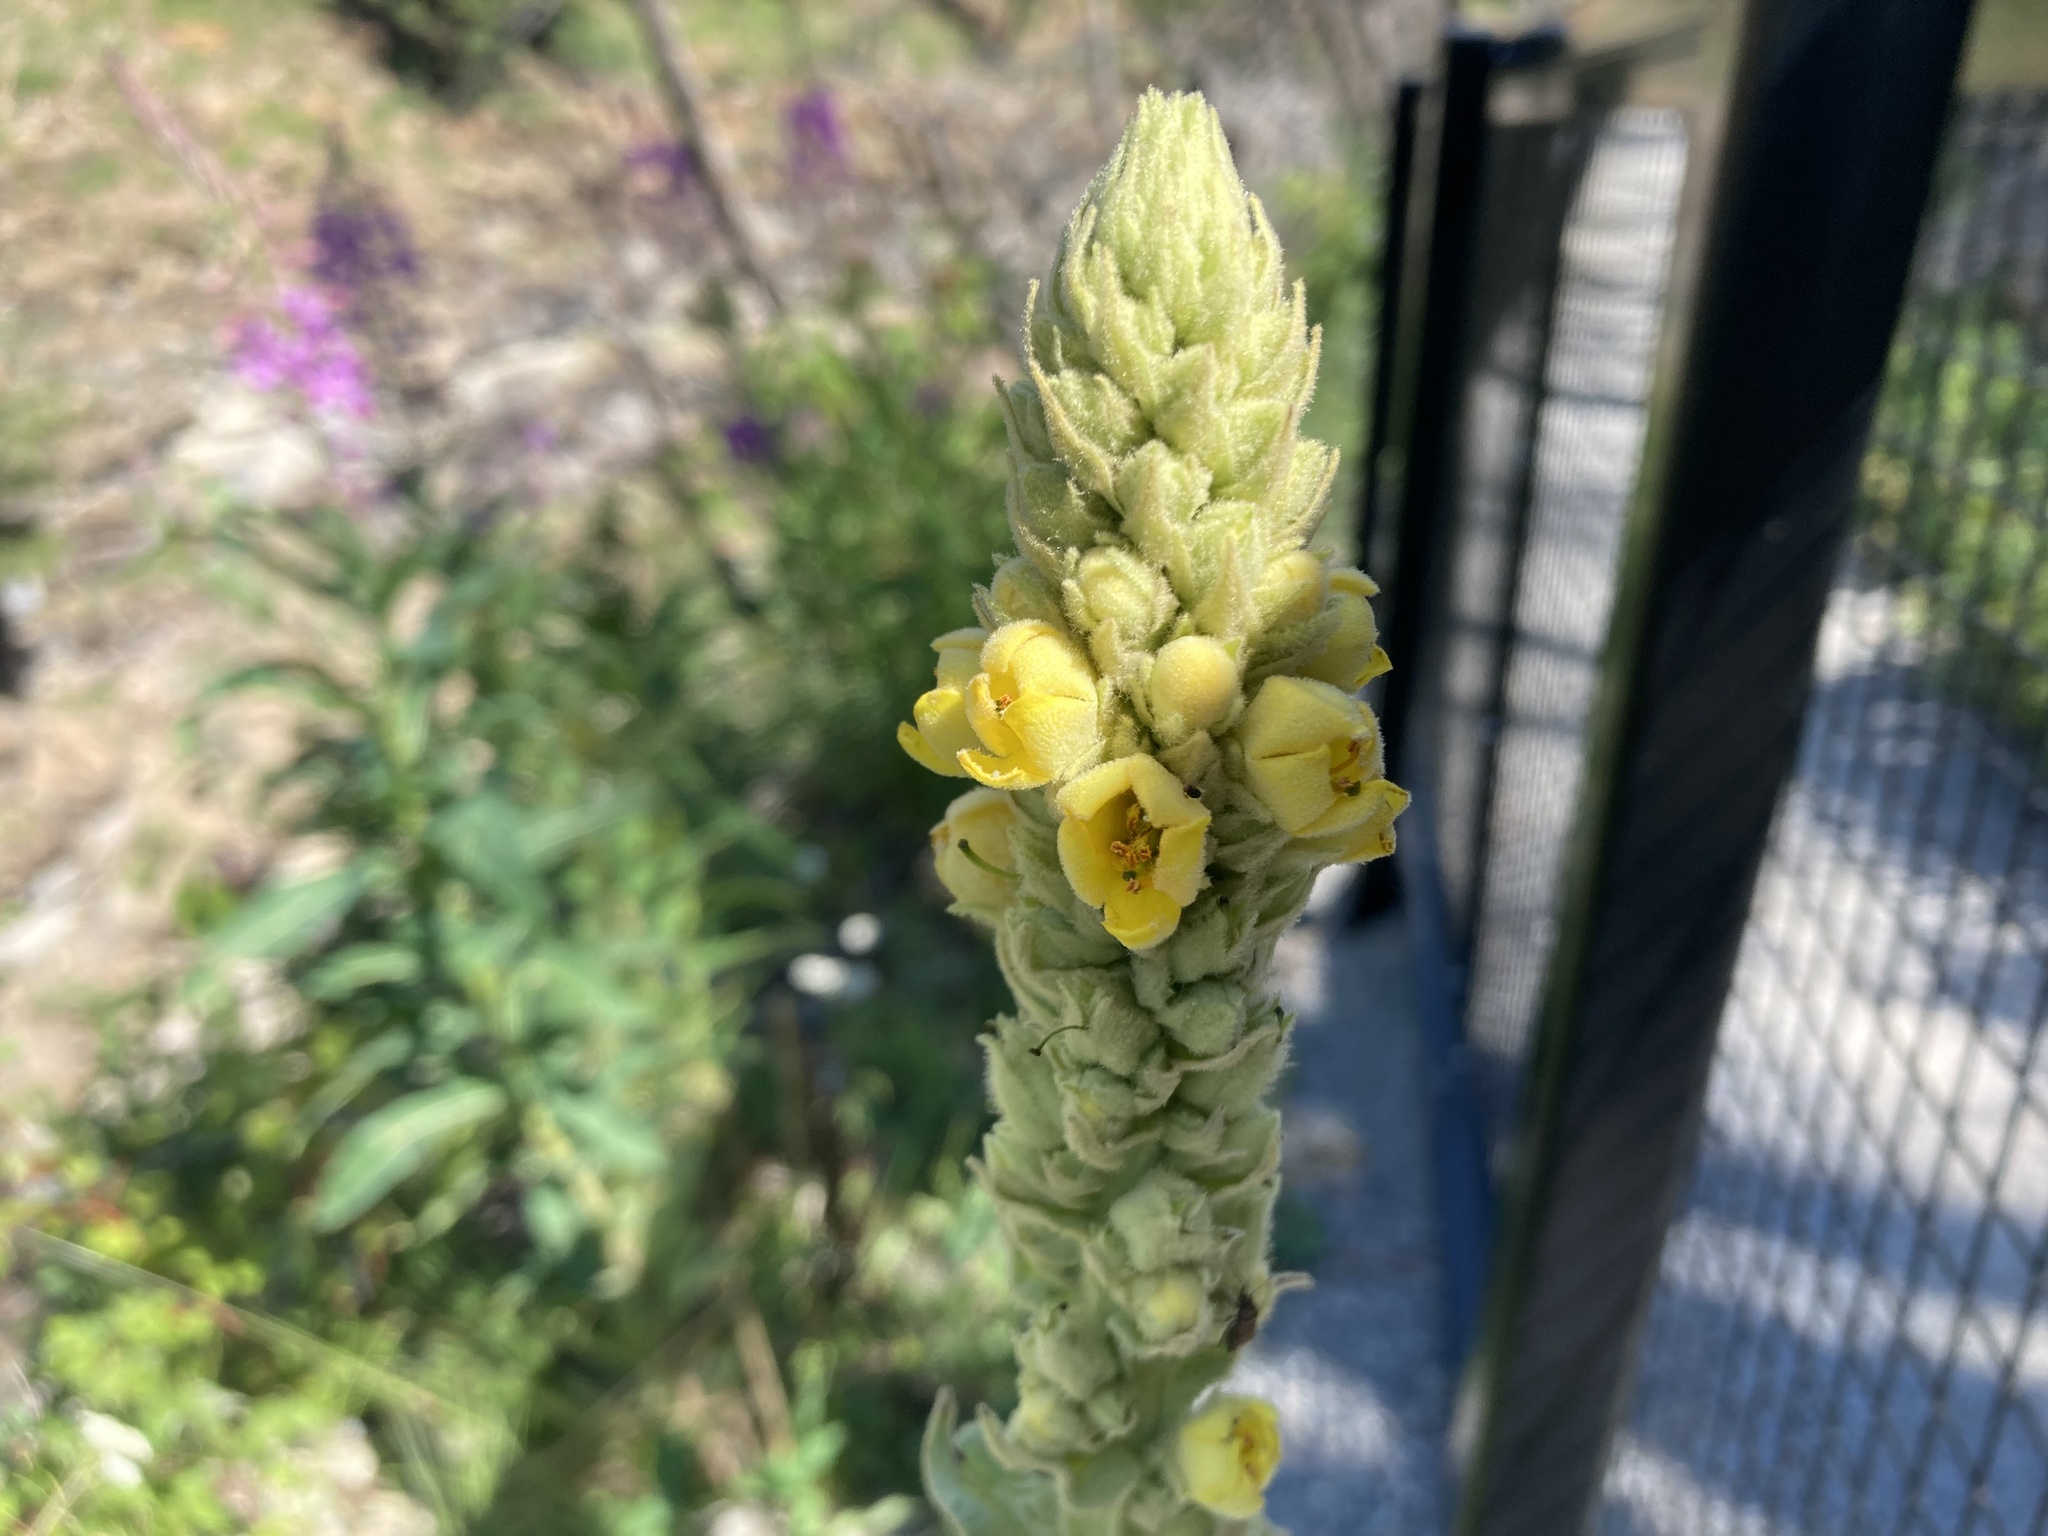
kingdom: Plantae
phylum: Tracheophyta
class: Magnoliopsida
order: Lamiales
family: Scrophulariaceae
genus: Verbascum
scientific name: Verbascum thapsus
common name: Common mullein
